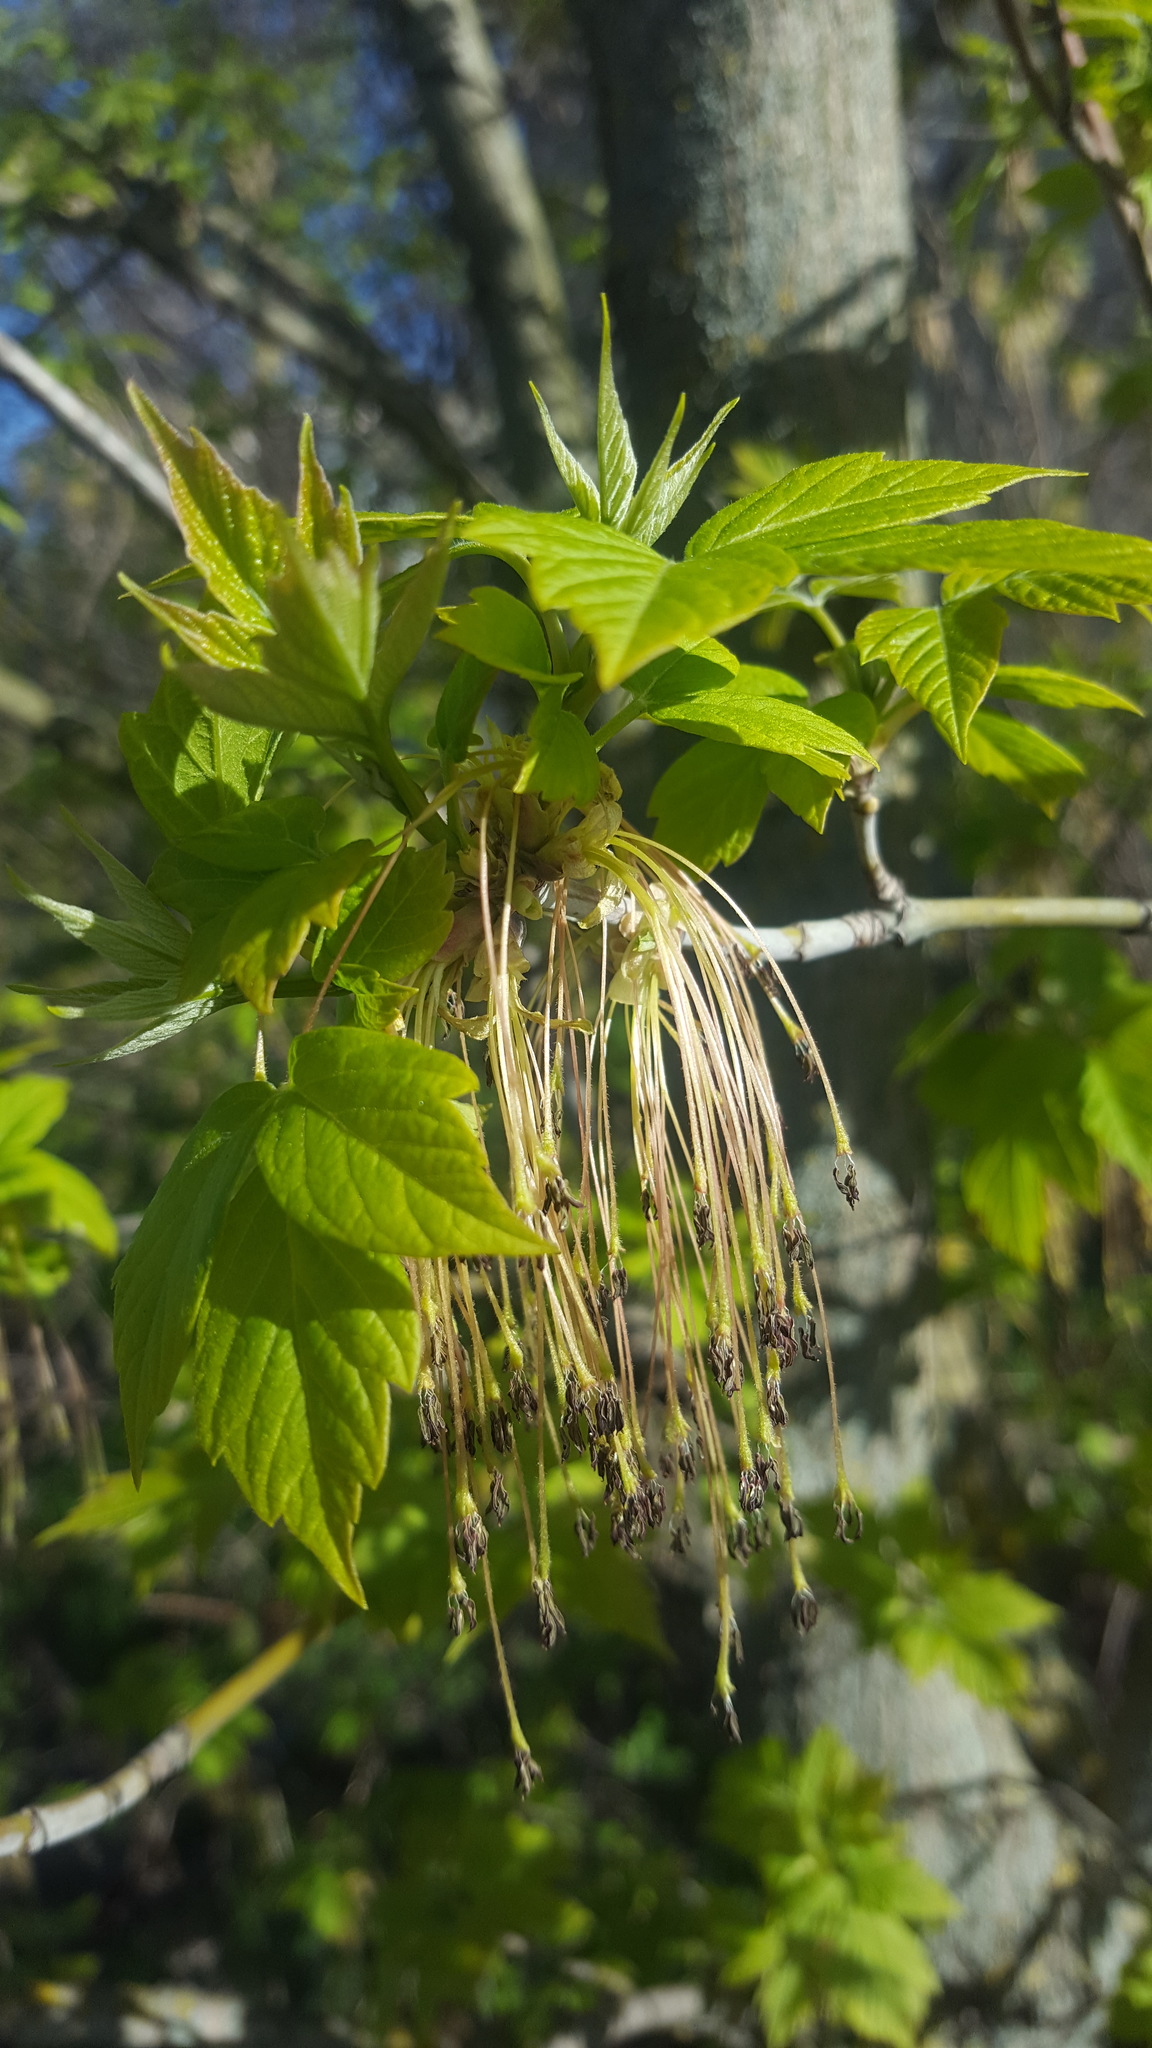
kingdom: Plantae
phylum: Tracheophyta
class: Magnoliopsida
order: Sapindales
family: Sapindaceae
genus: Acer
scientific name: Acer negundo
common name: Ashleaf maple
